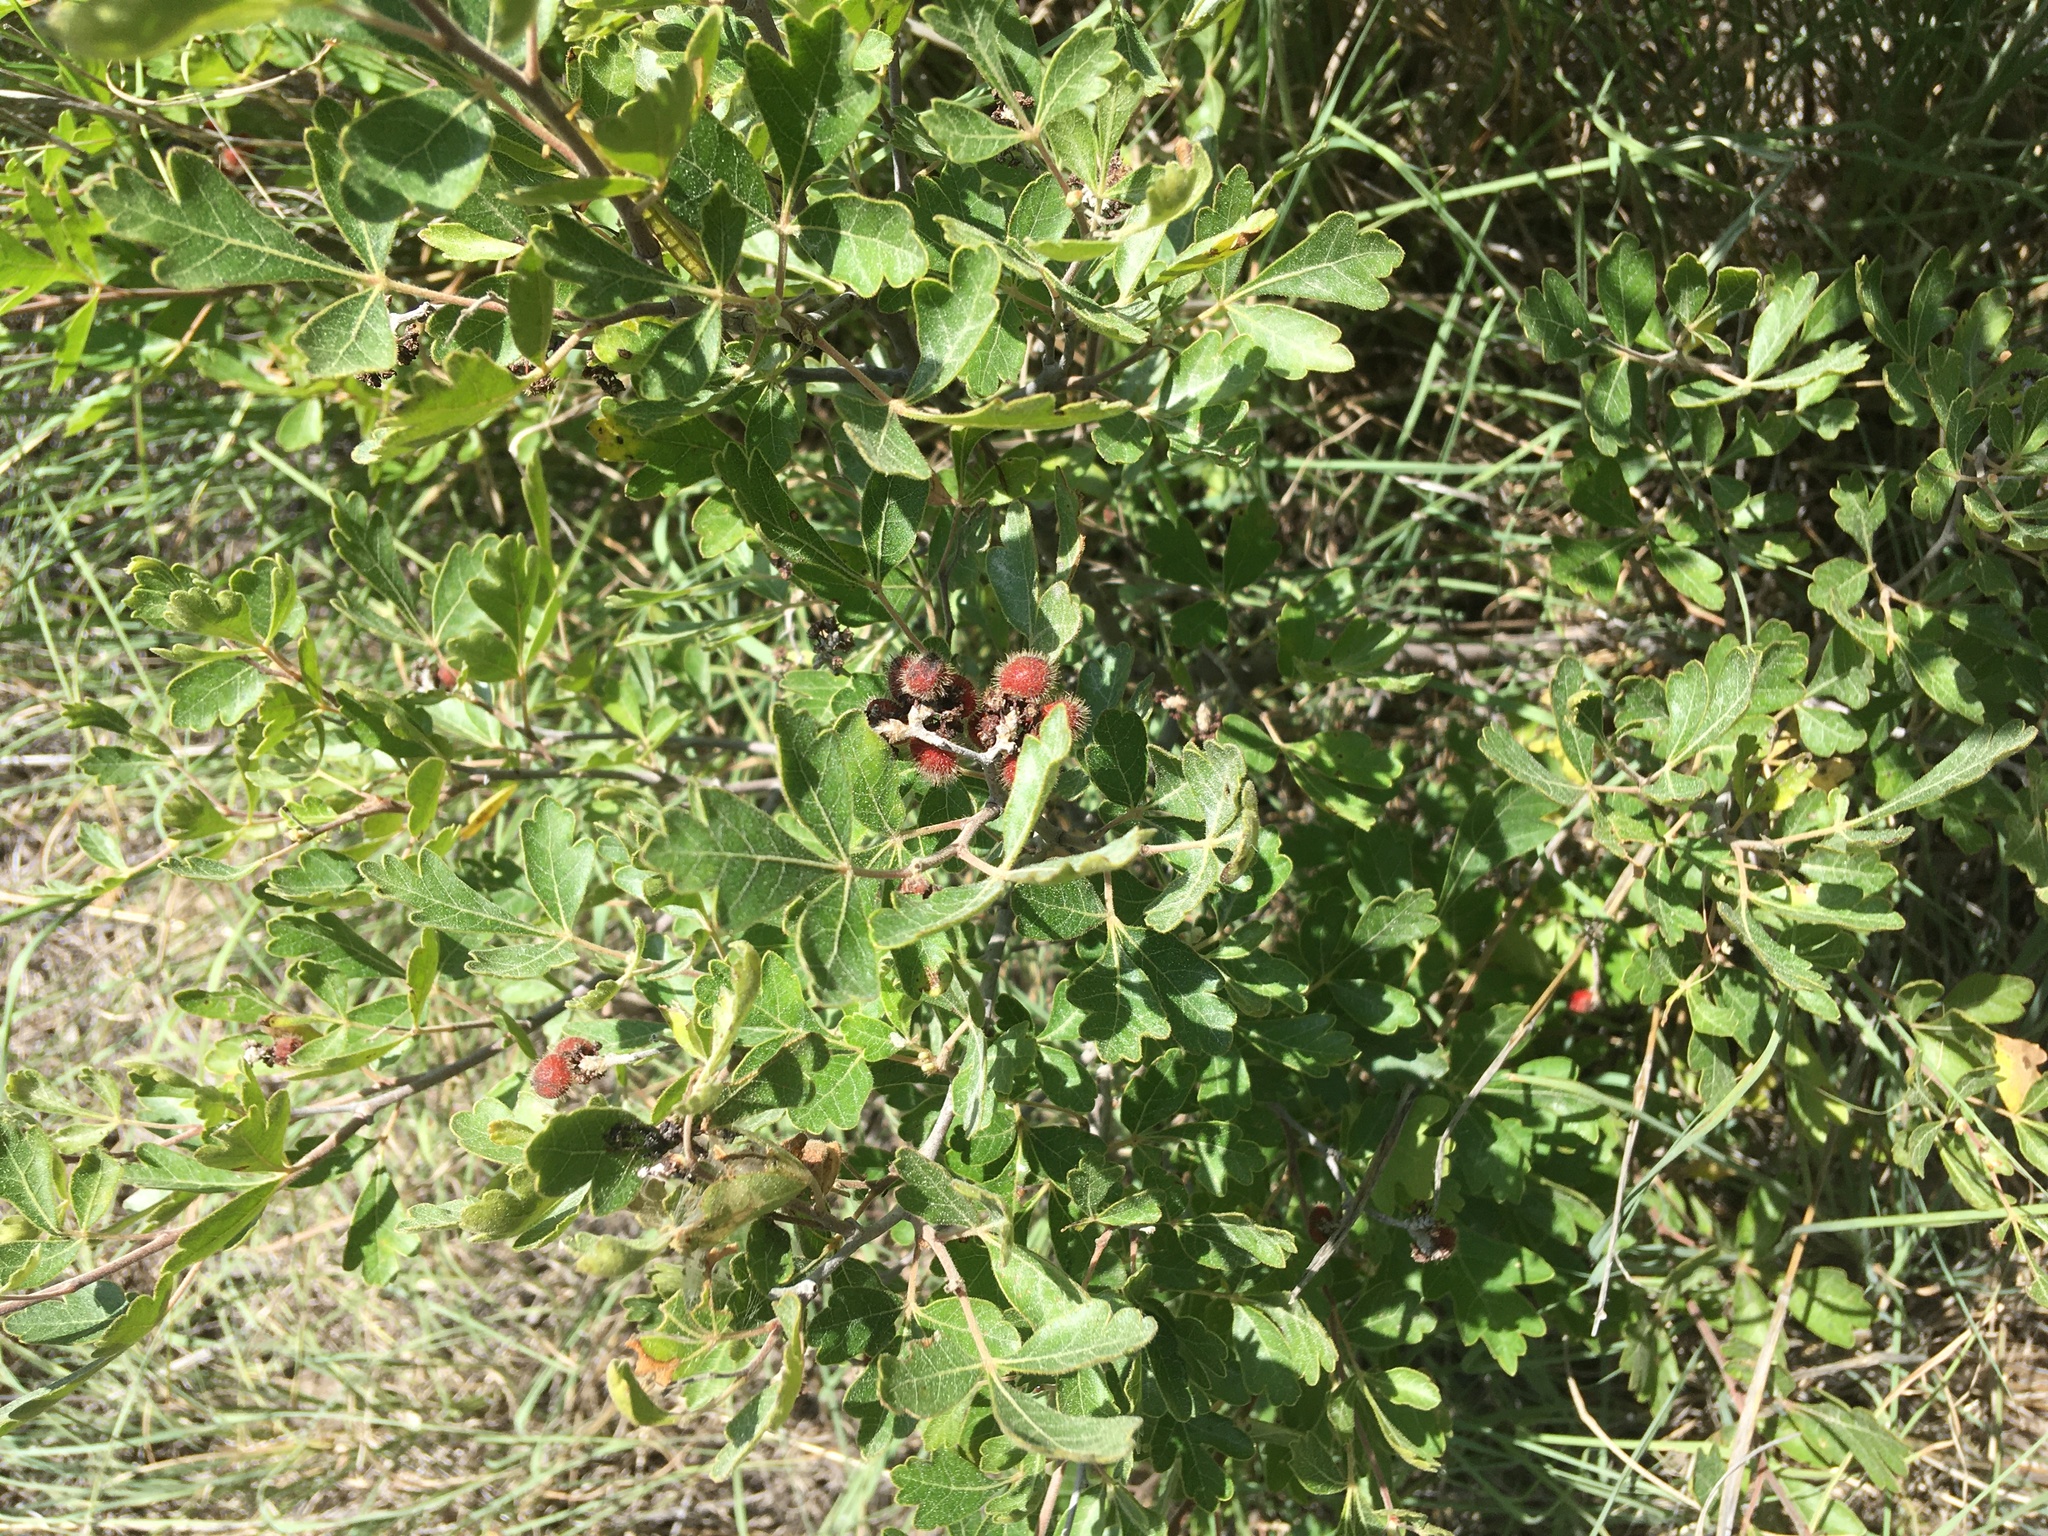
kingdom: Plantae
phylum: Tracheophyta
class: Magnoliopsida
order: Sapindales
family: Anacardiaceae
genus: Rhus
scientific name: Rhus aromatica
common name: Aromatic sumac
